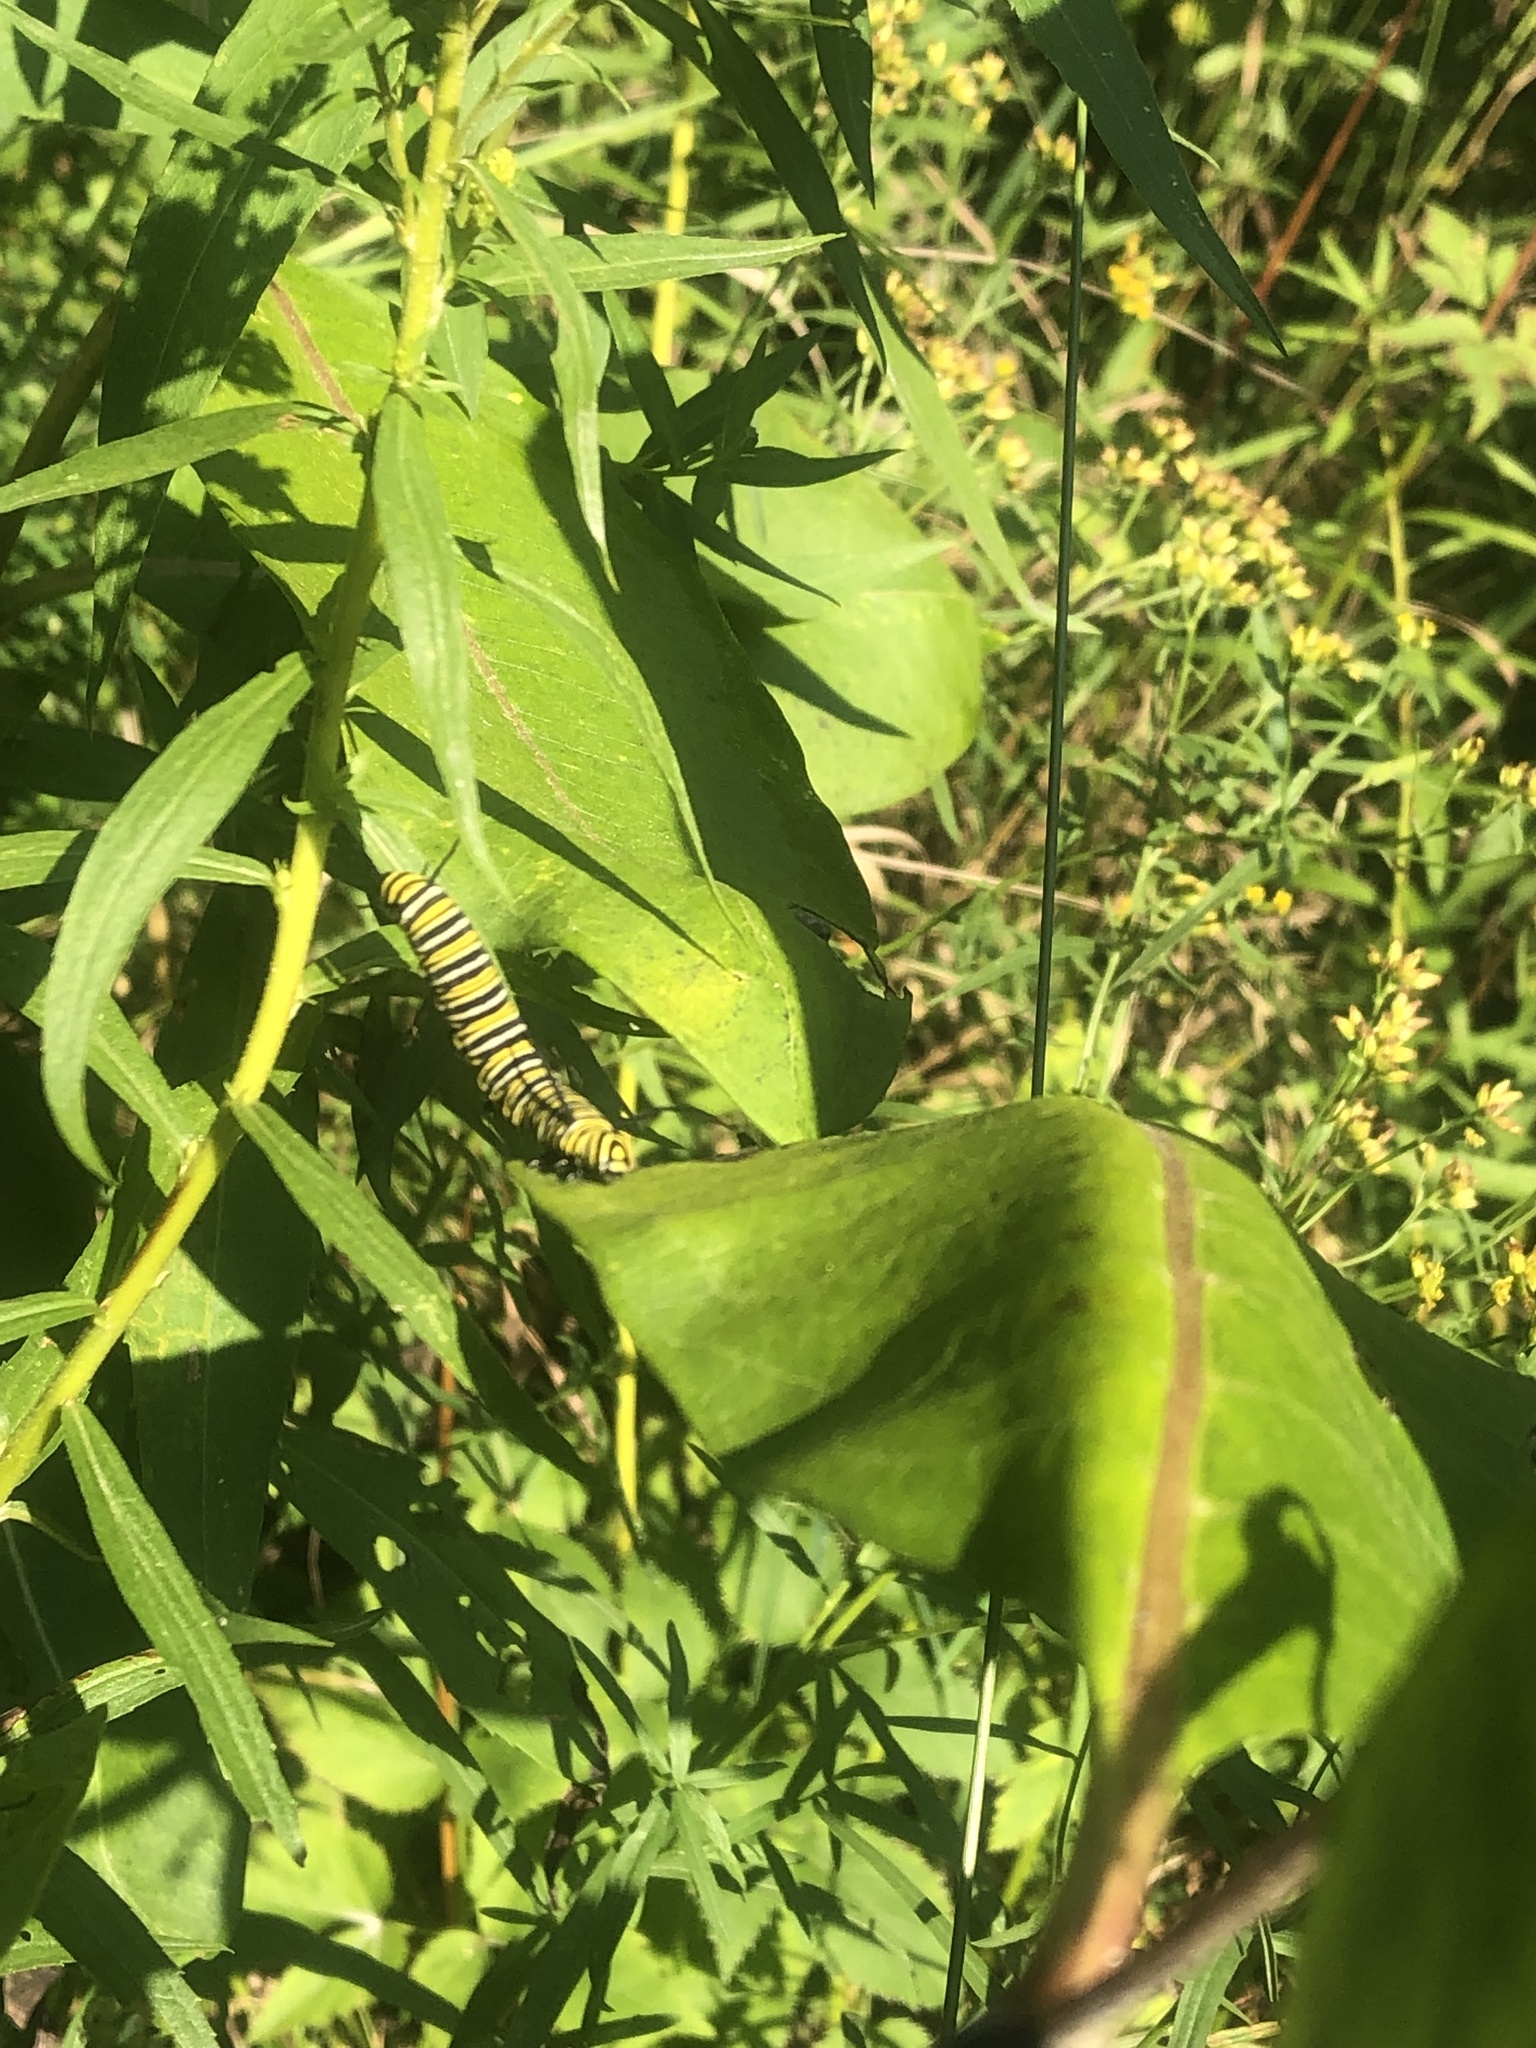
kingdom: Animalia
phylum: Arthropoda
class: Insecta
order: Lepidoptera
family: Nymphalidae
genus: Danaus
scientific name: Danaus plexippus
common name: Monarch
